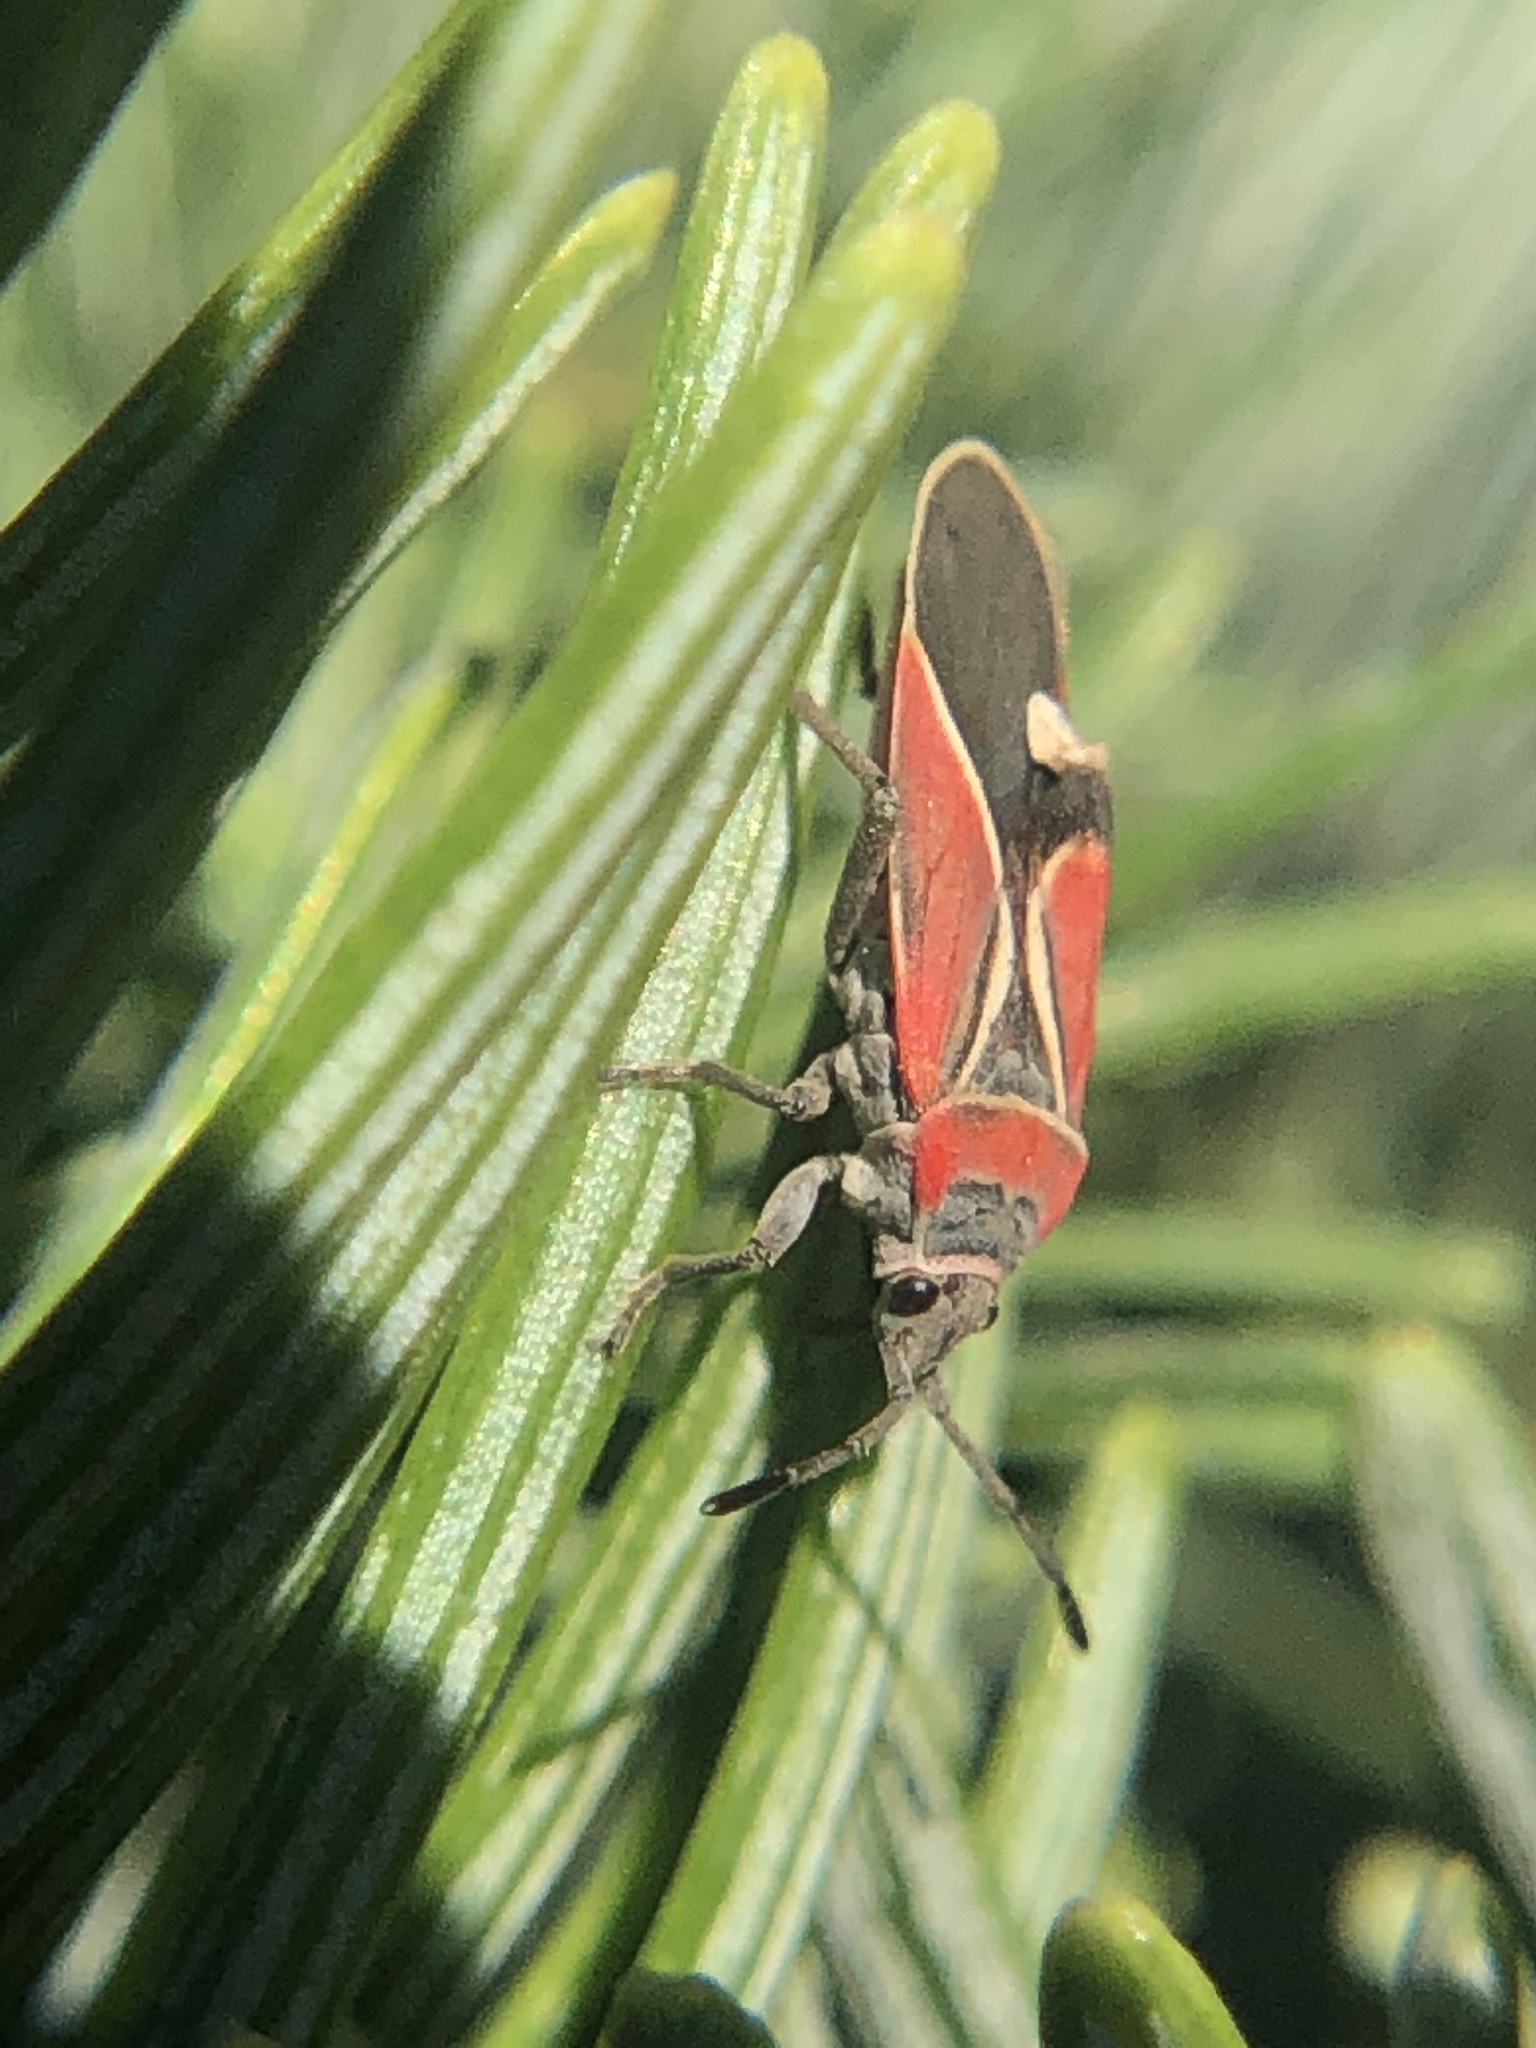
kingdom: Animalia
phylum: Arthropoda
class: Insecta
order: Hemiptera
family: Lygaeidae
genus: Neacoryphus
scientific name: Neacoryphus bicrucis
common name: Lygaeid bug
